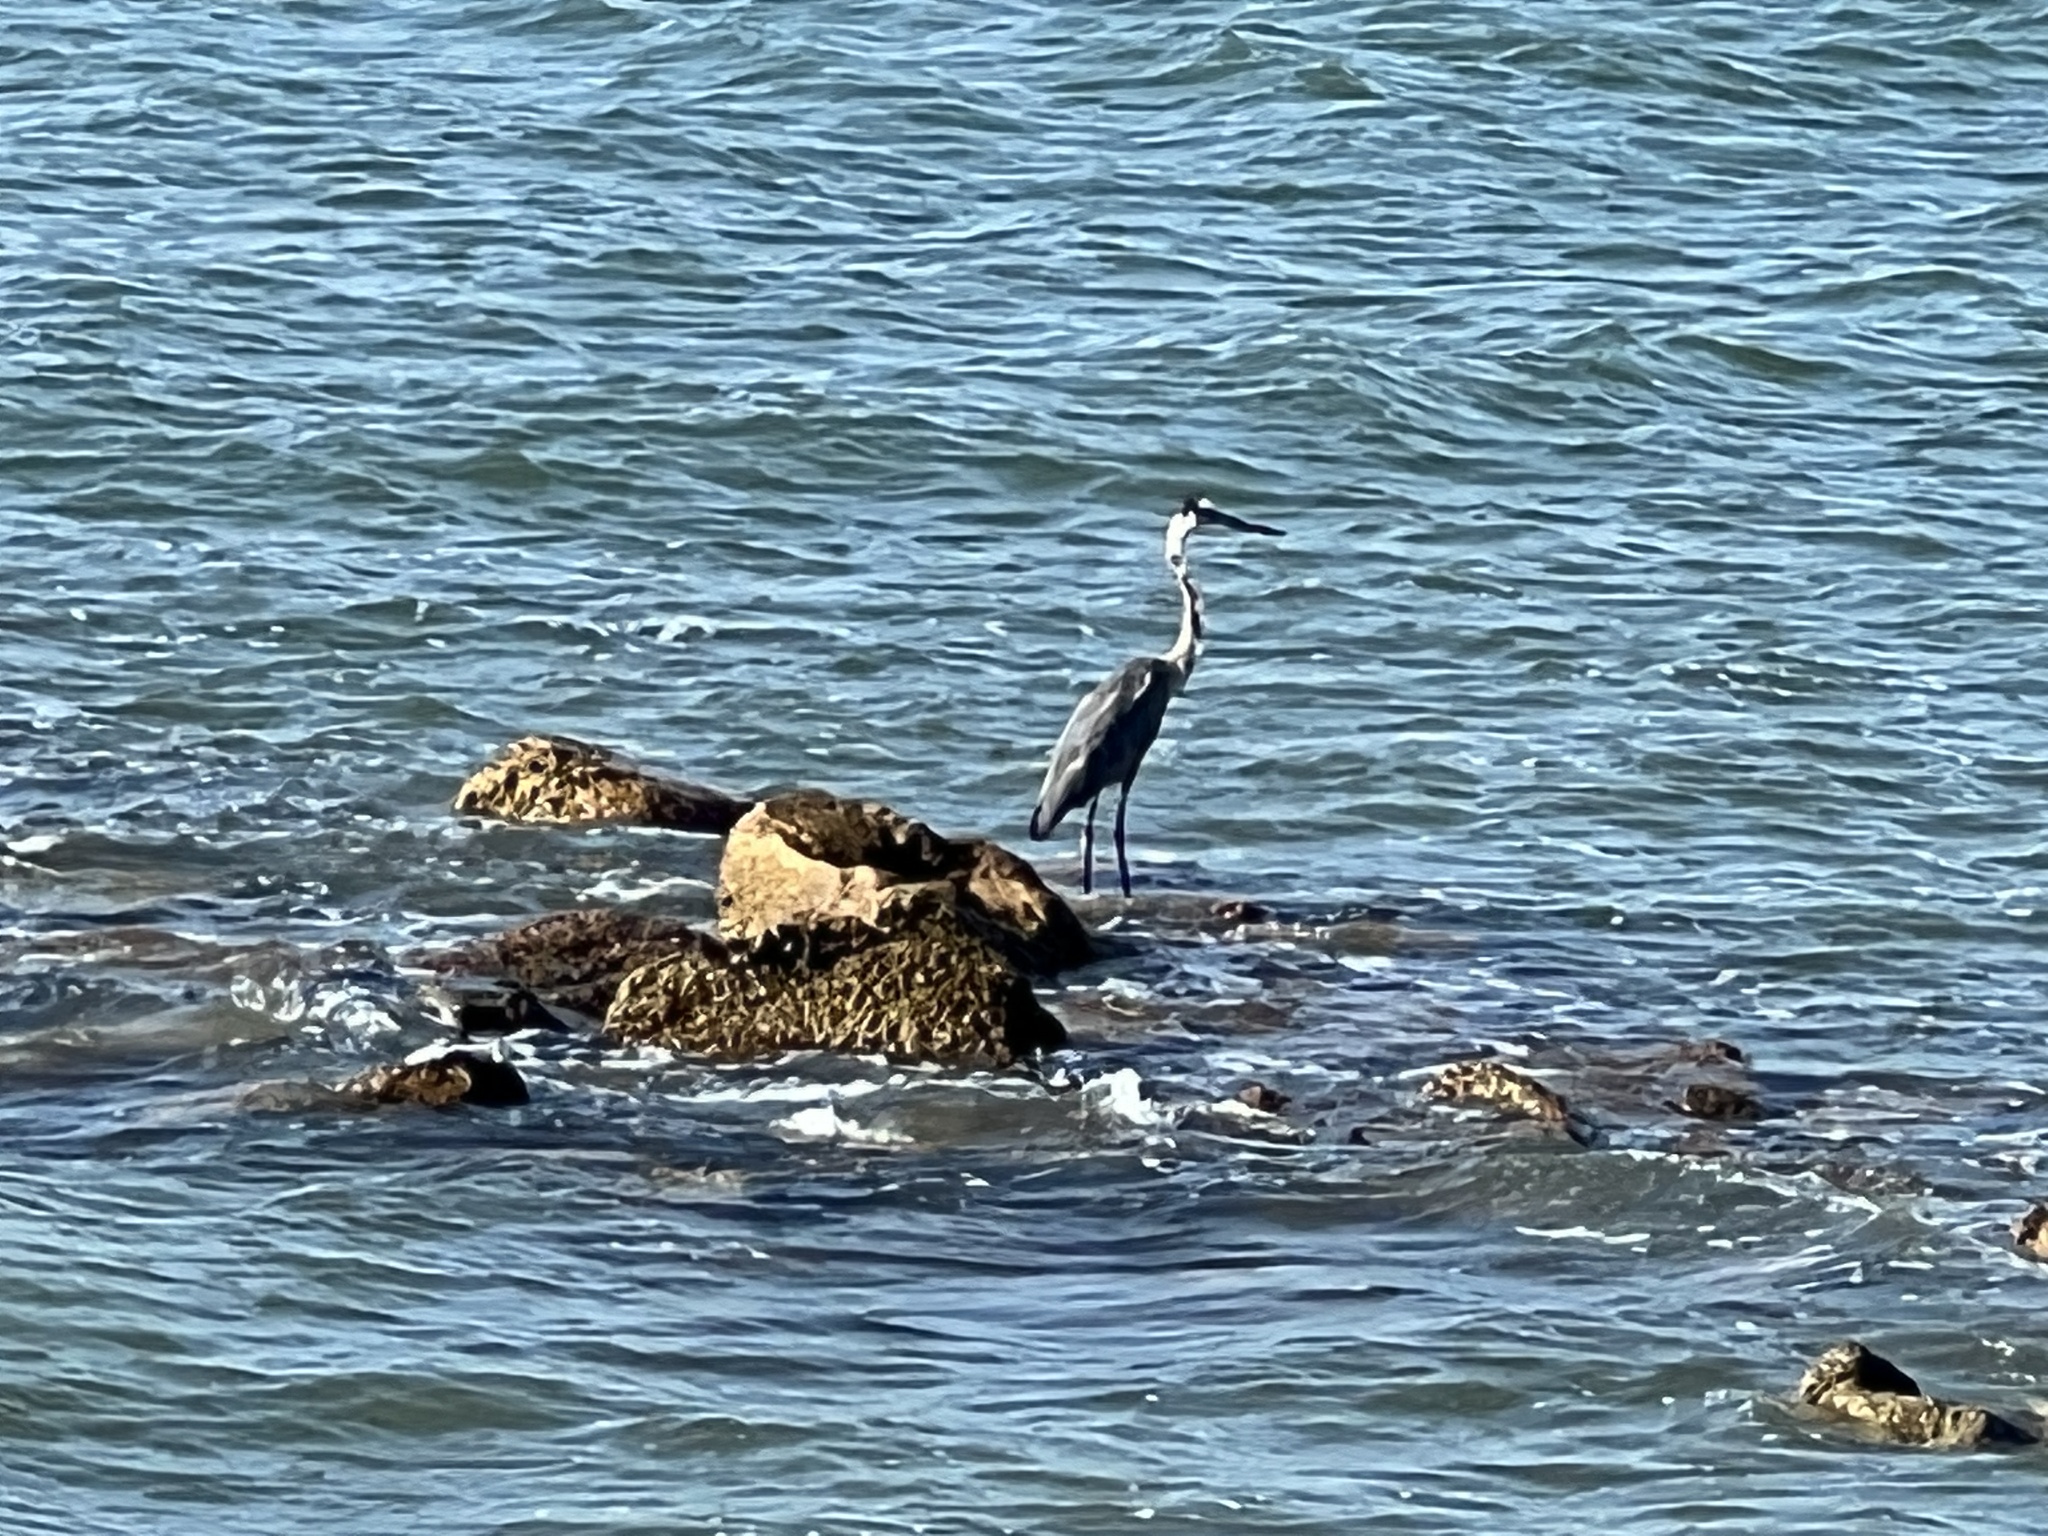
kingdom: Animalia
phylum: Chordata
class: Aves
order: Pelecaniformes
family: Ardeidae
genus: Ardea
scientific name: Ardea herodias
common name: Great blue heron
